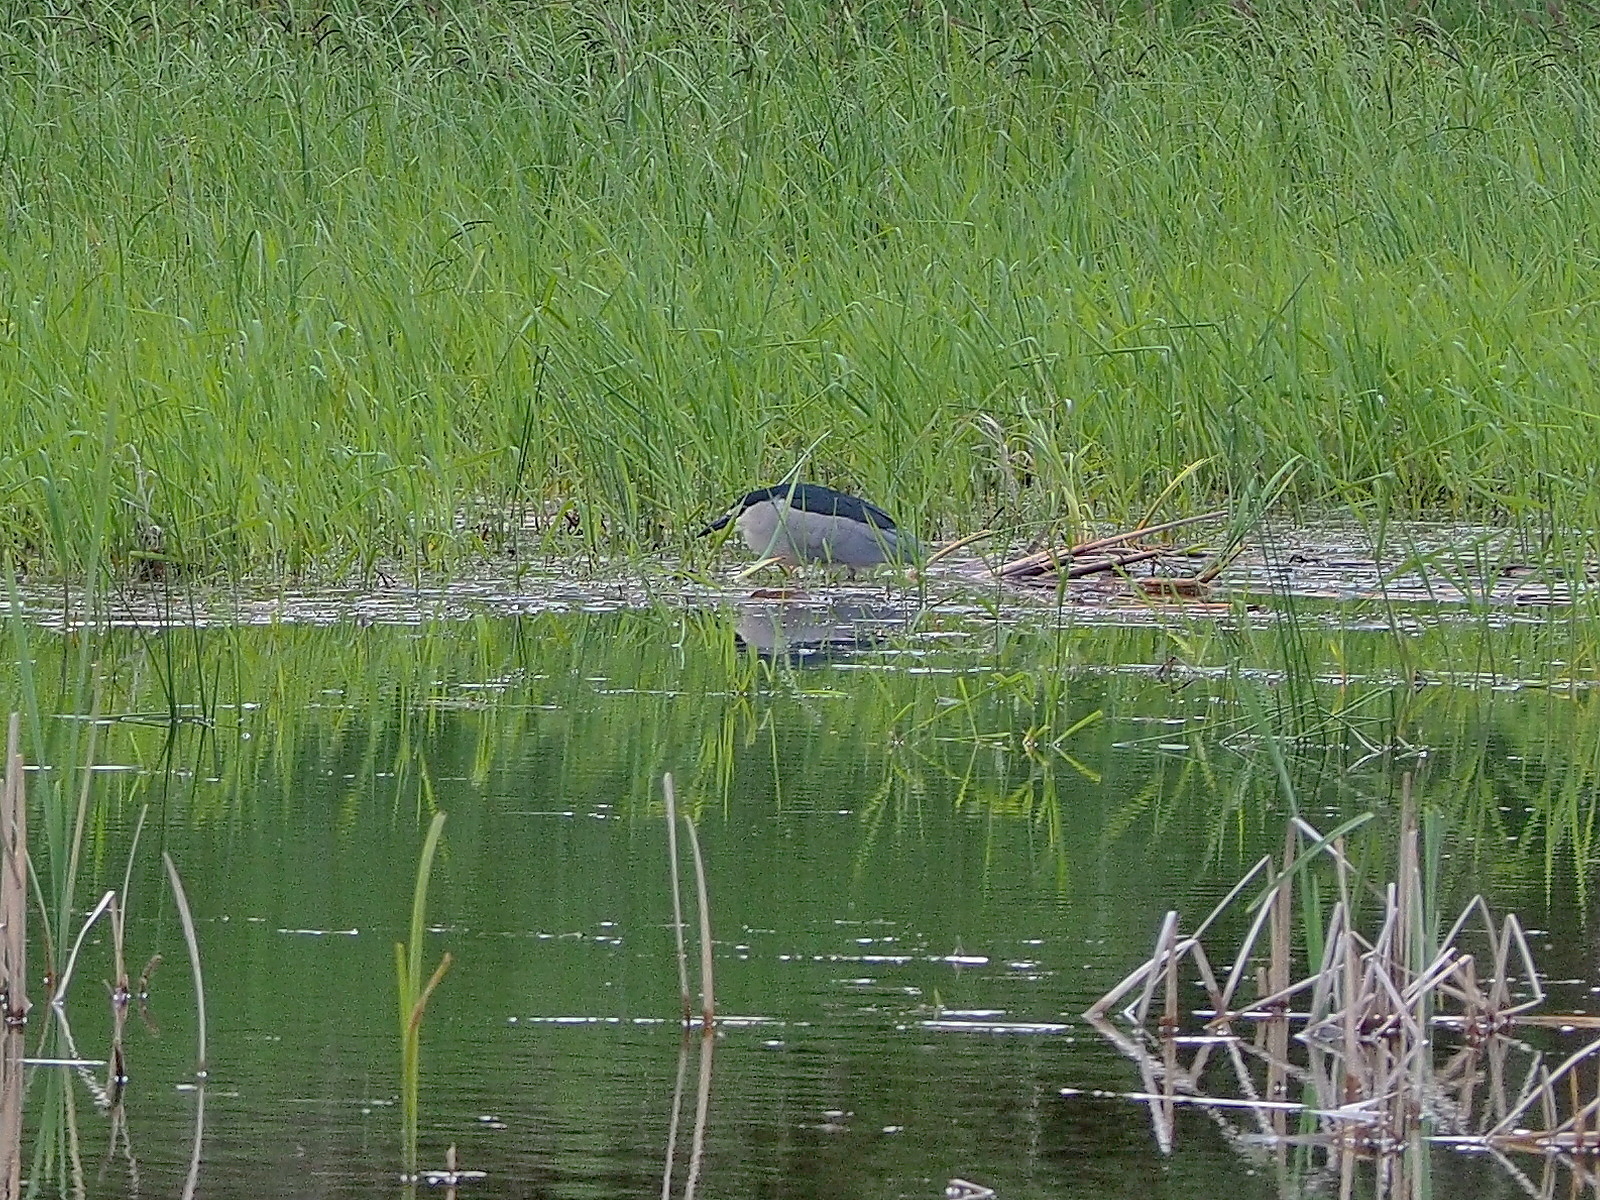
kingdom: Animalia
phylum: Chordata
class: Aves
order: Pelecaniformes
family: Ardeidae
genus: Nycticorax
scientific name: Nycticorax nycticorax
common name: Black-crowned night heron
